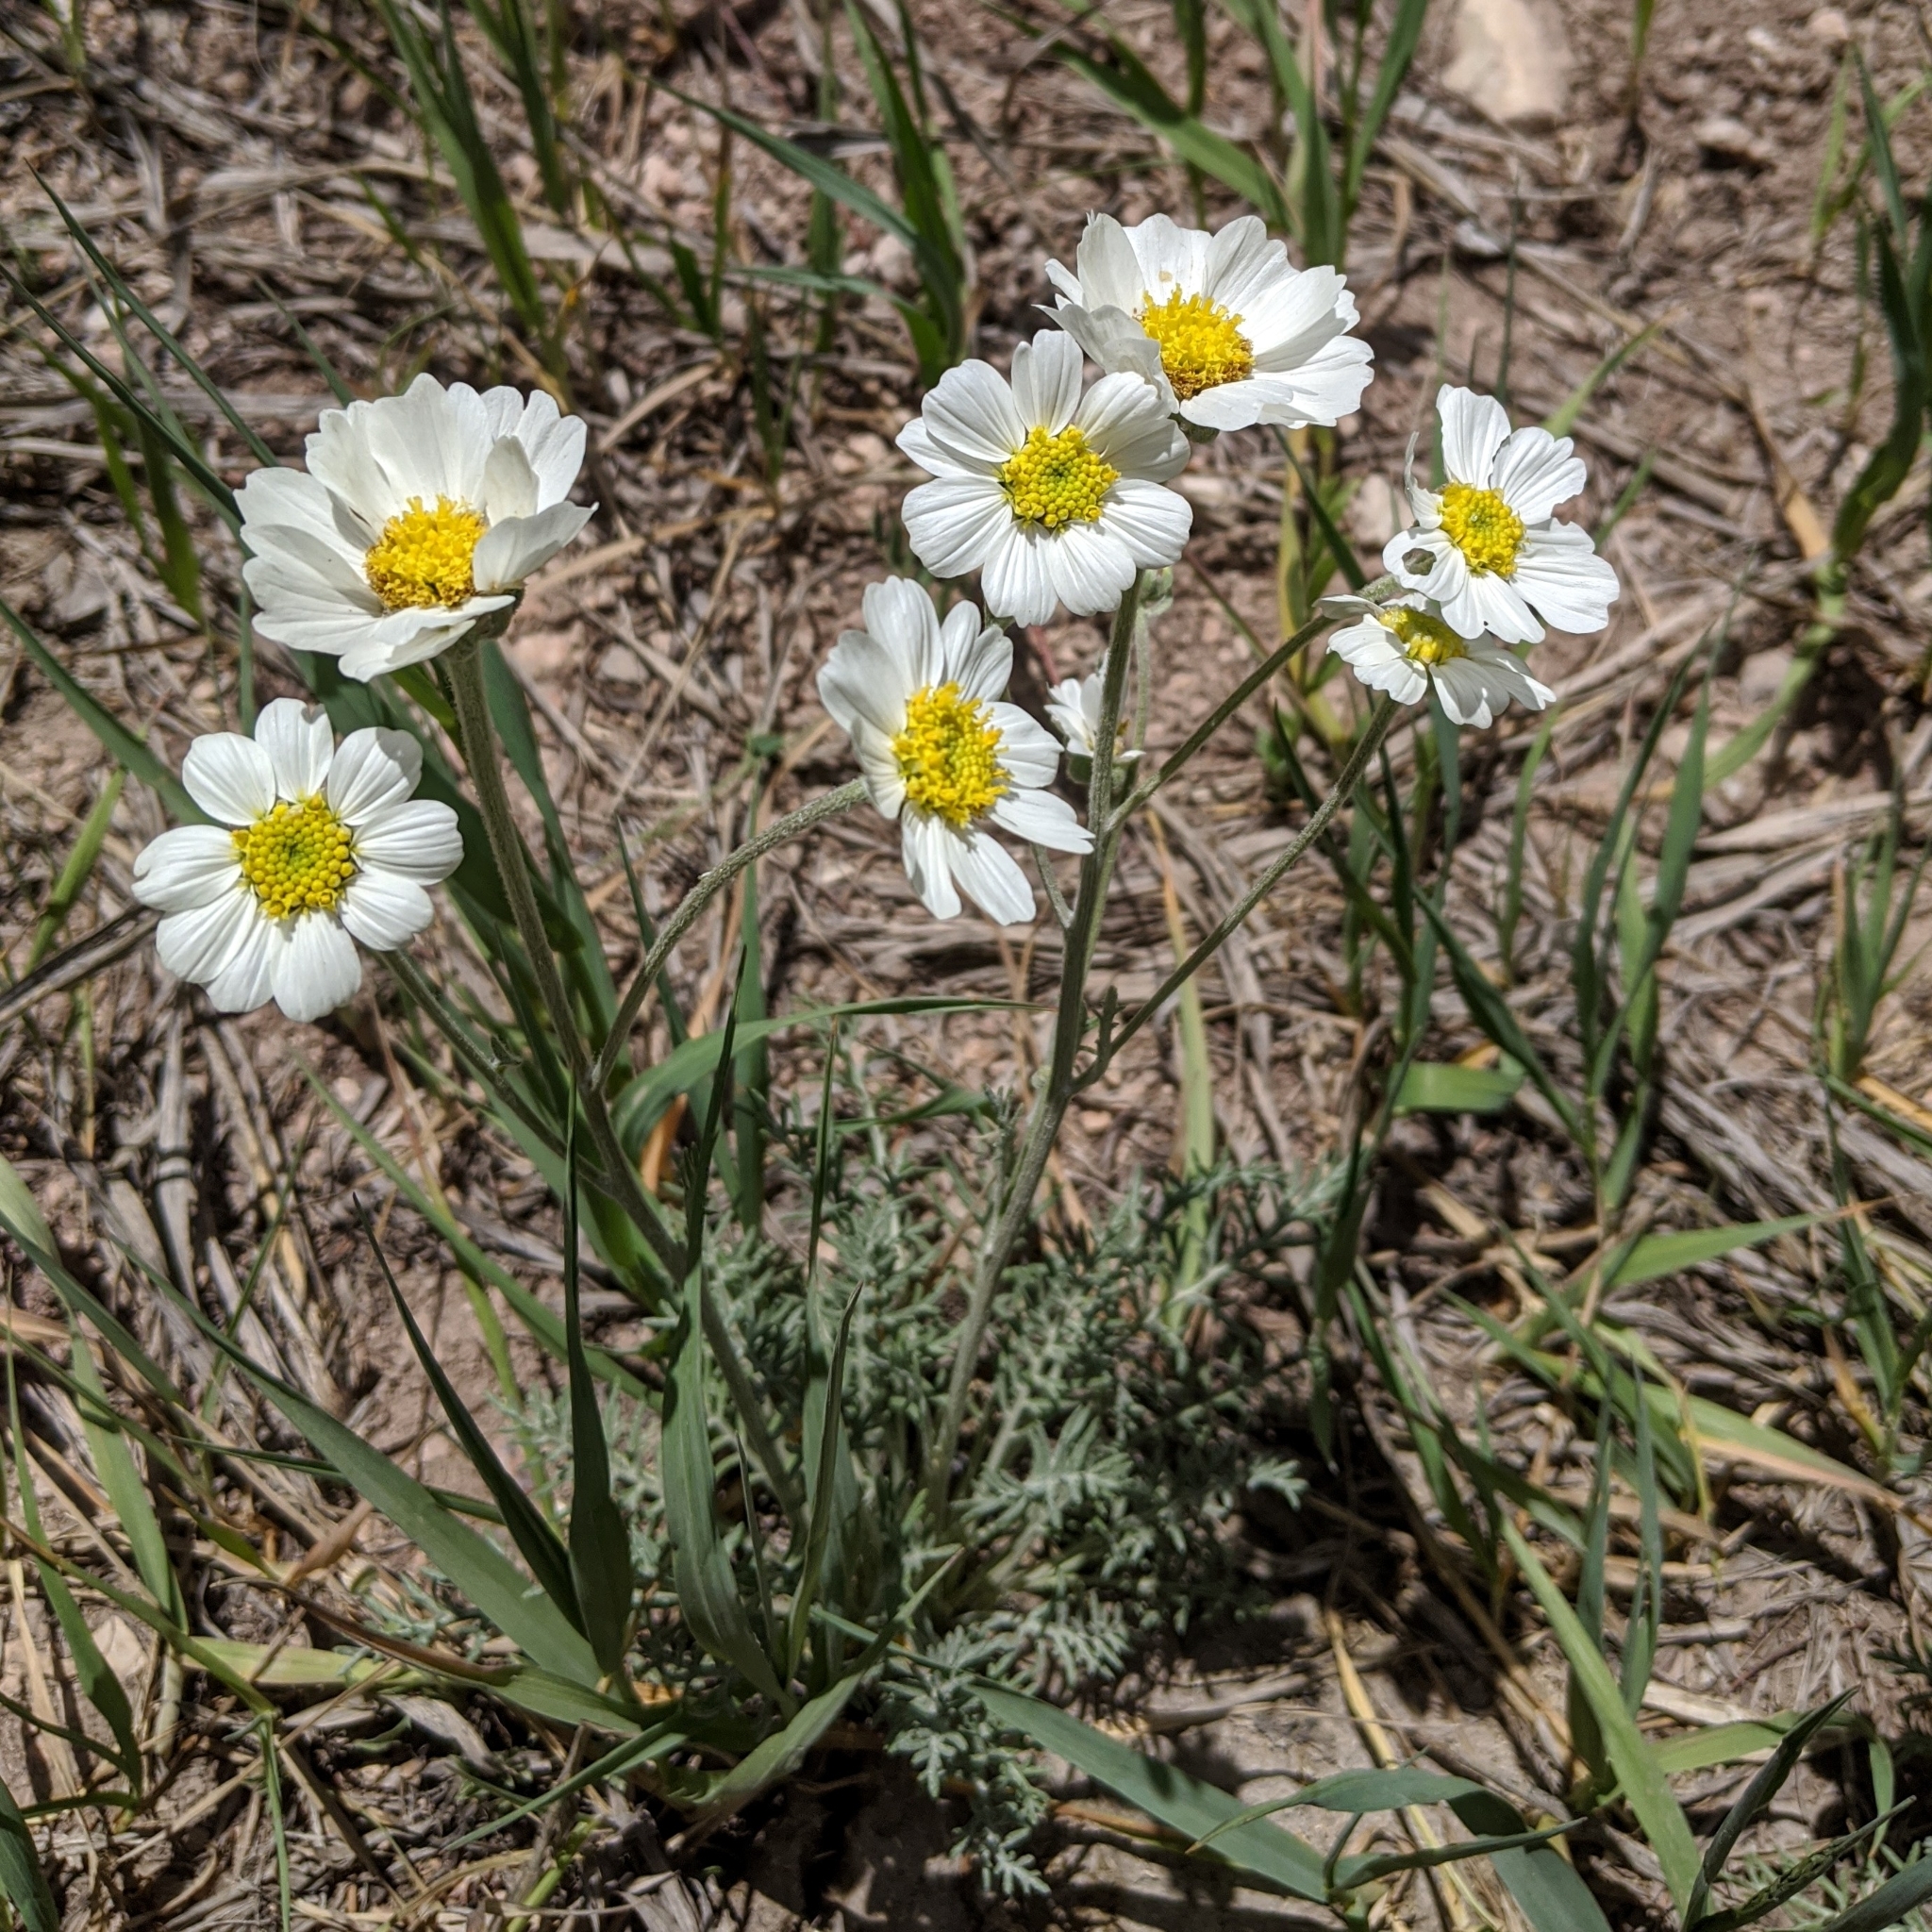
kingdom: Plantae
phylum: Tracheophyta
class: Magnoliopsida
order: Asterales
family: Asteraceae
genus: Melampodium
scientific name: Melampodium leucanthum
